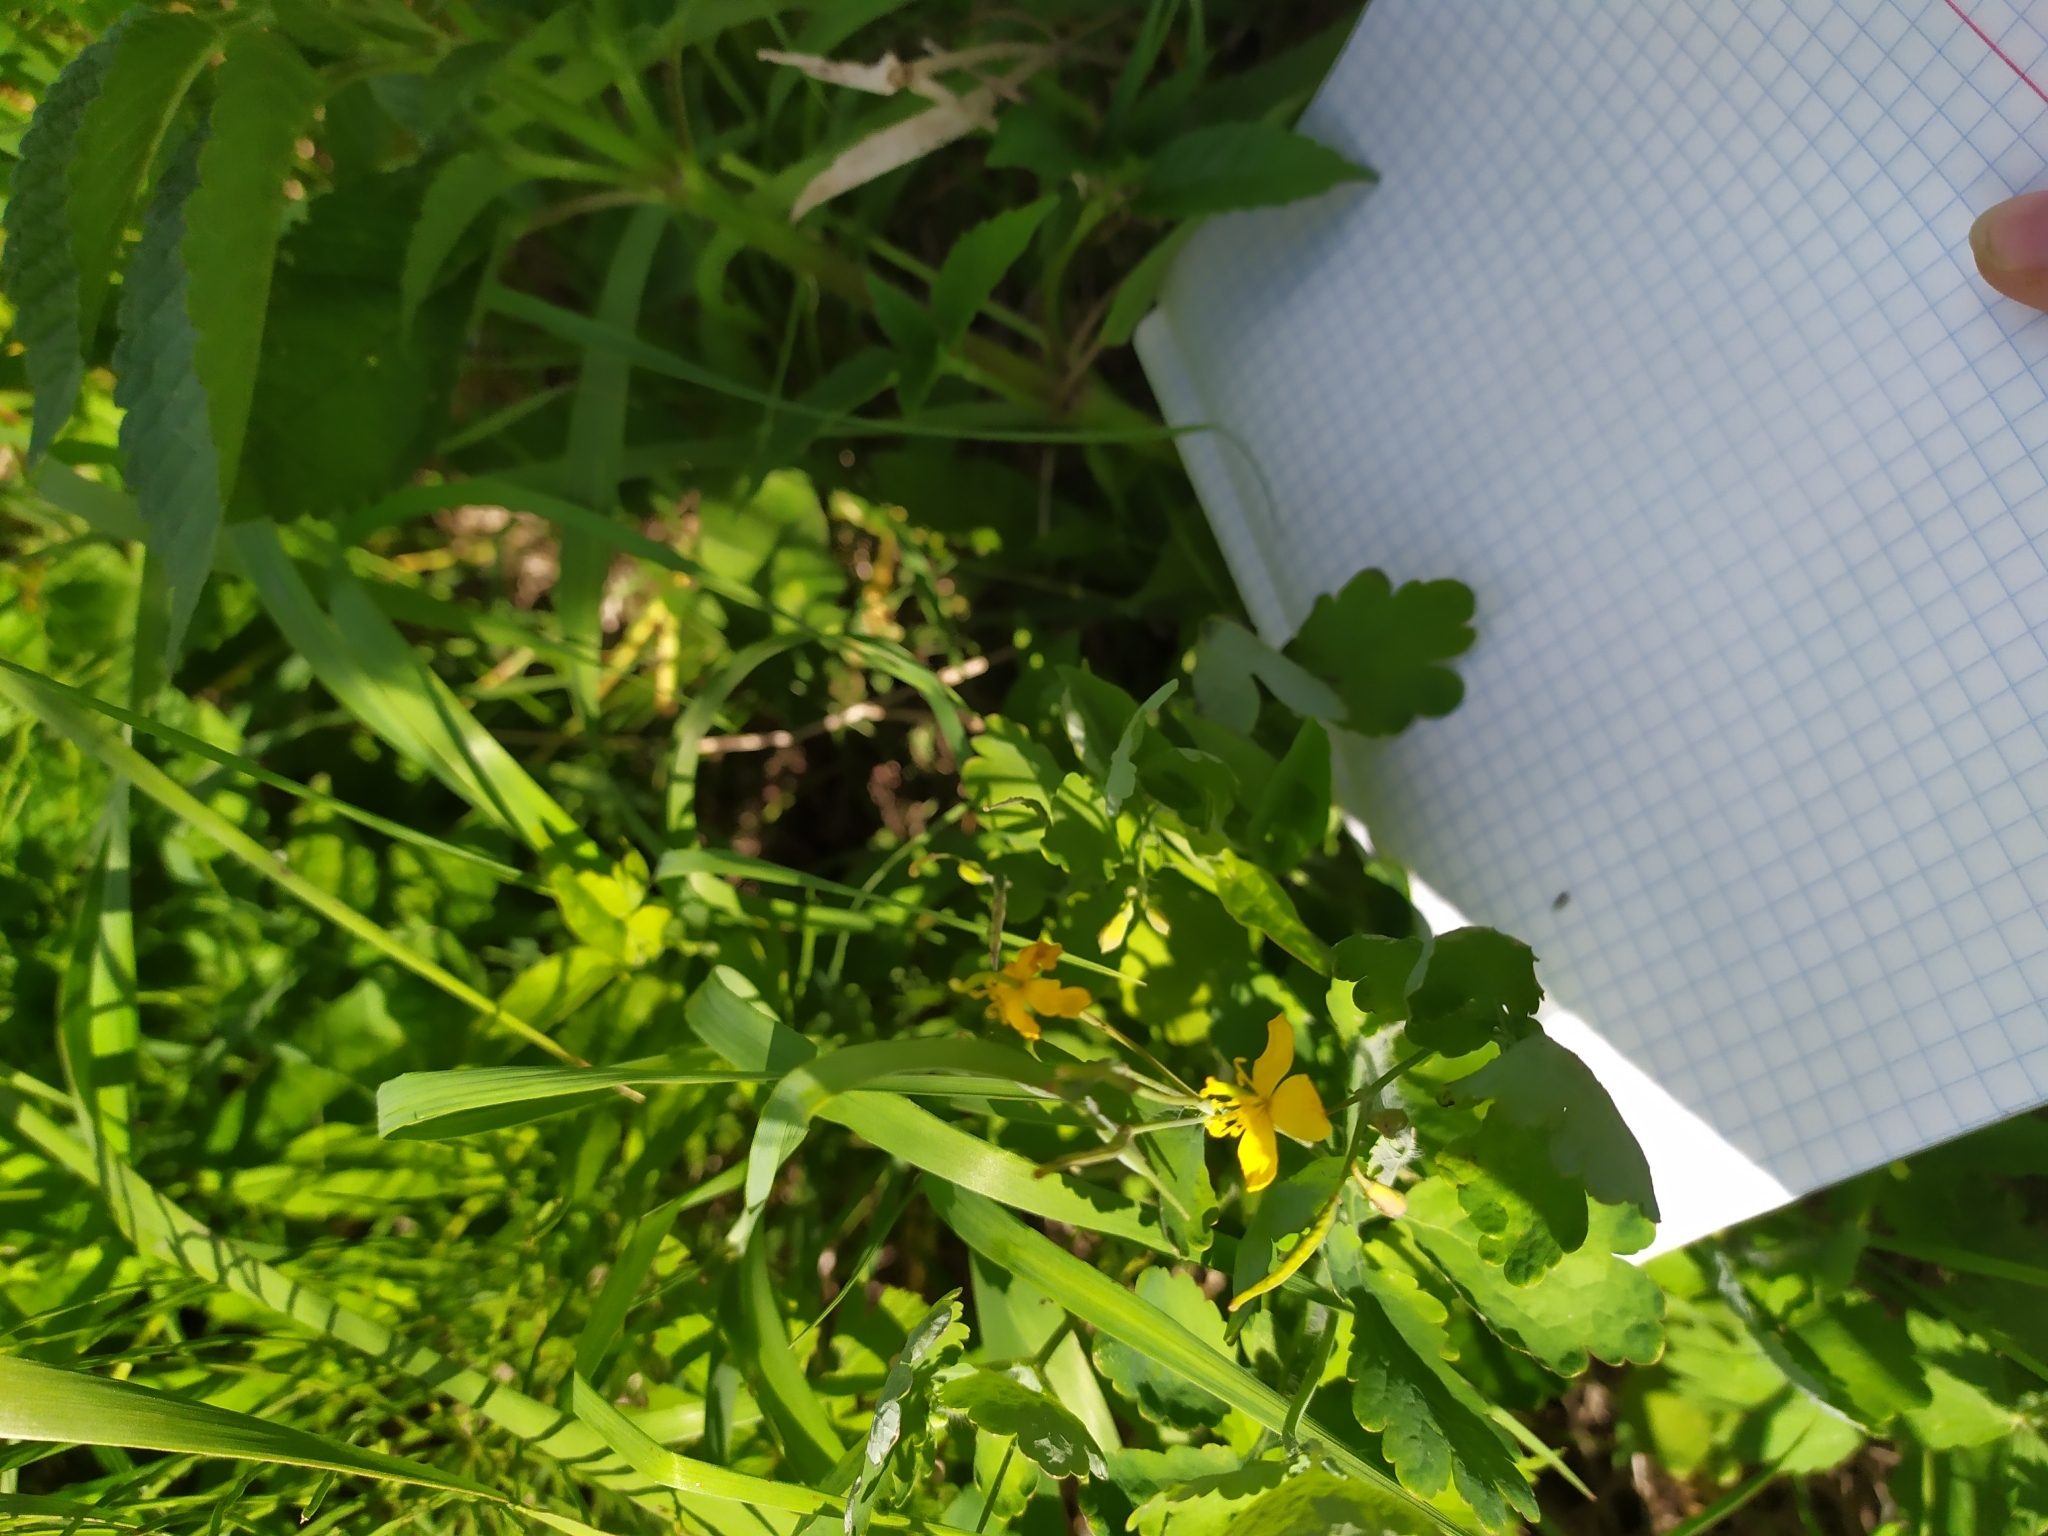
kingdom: Plantae
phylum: Tracheophyta
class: Magnoliopsida
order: Ranunculales
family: Papaveraceae
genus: Chelidonium
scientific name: Chelidonium majus
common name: Greater celandine
